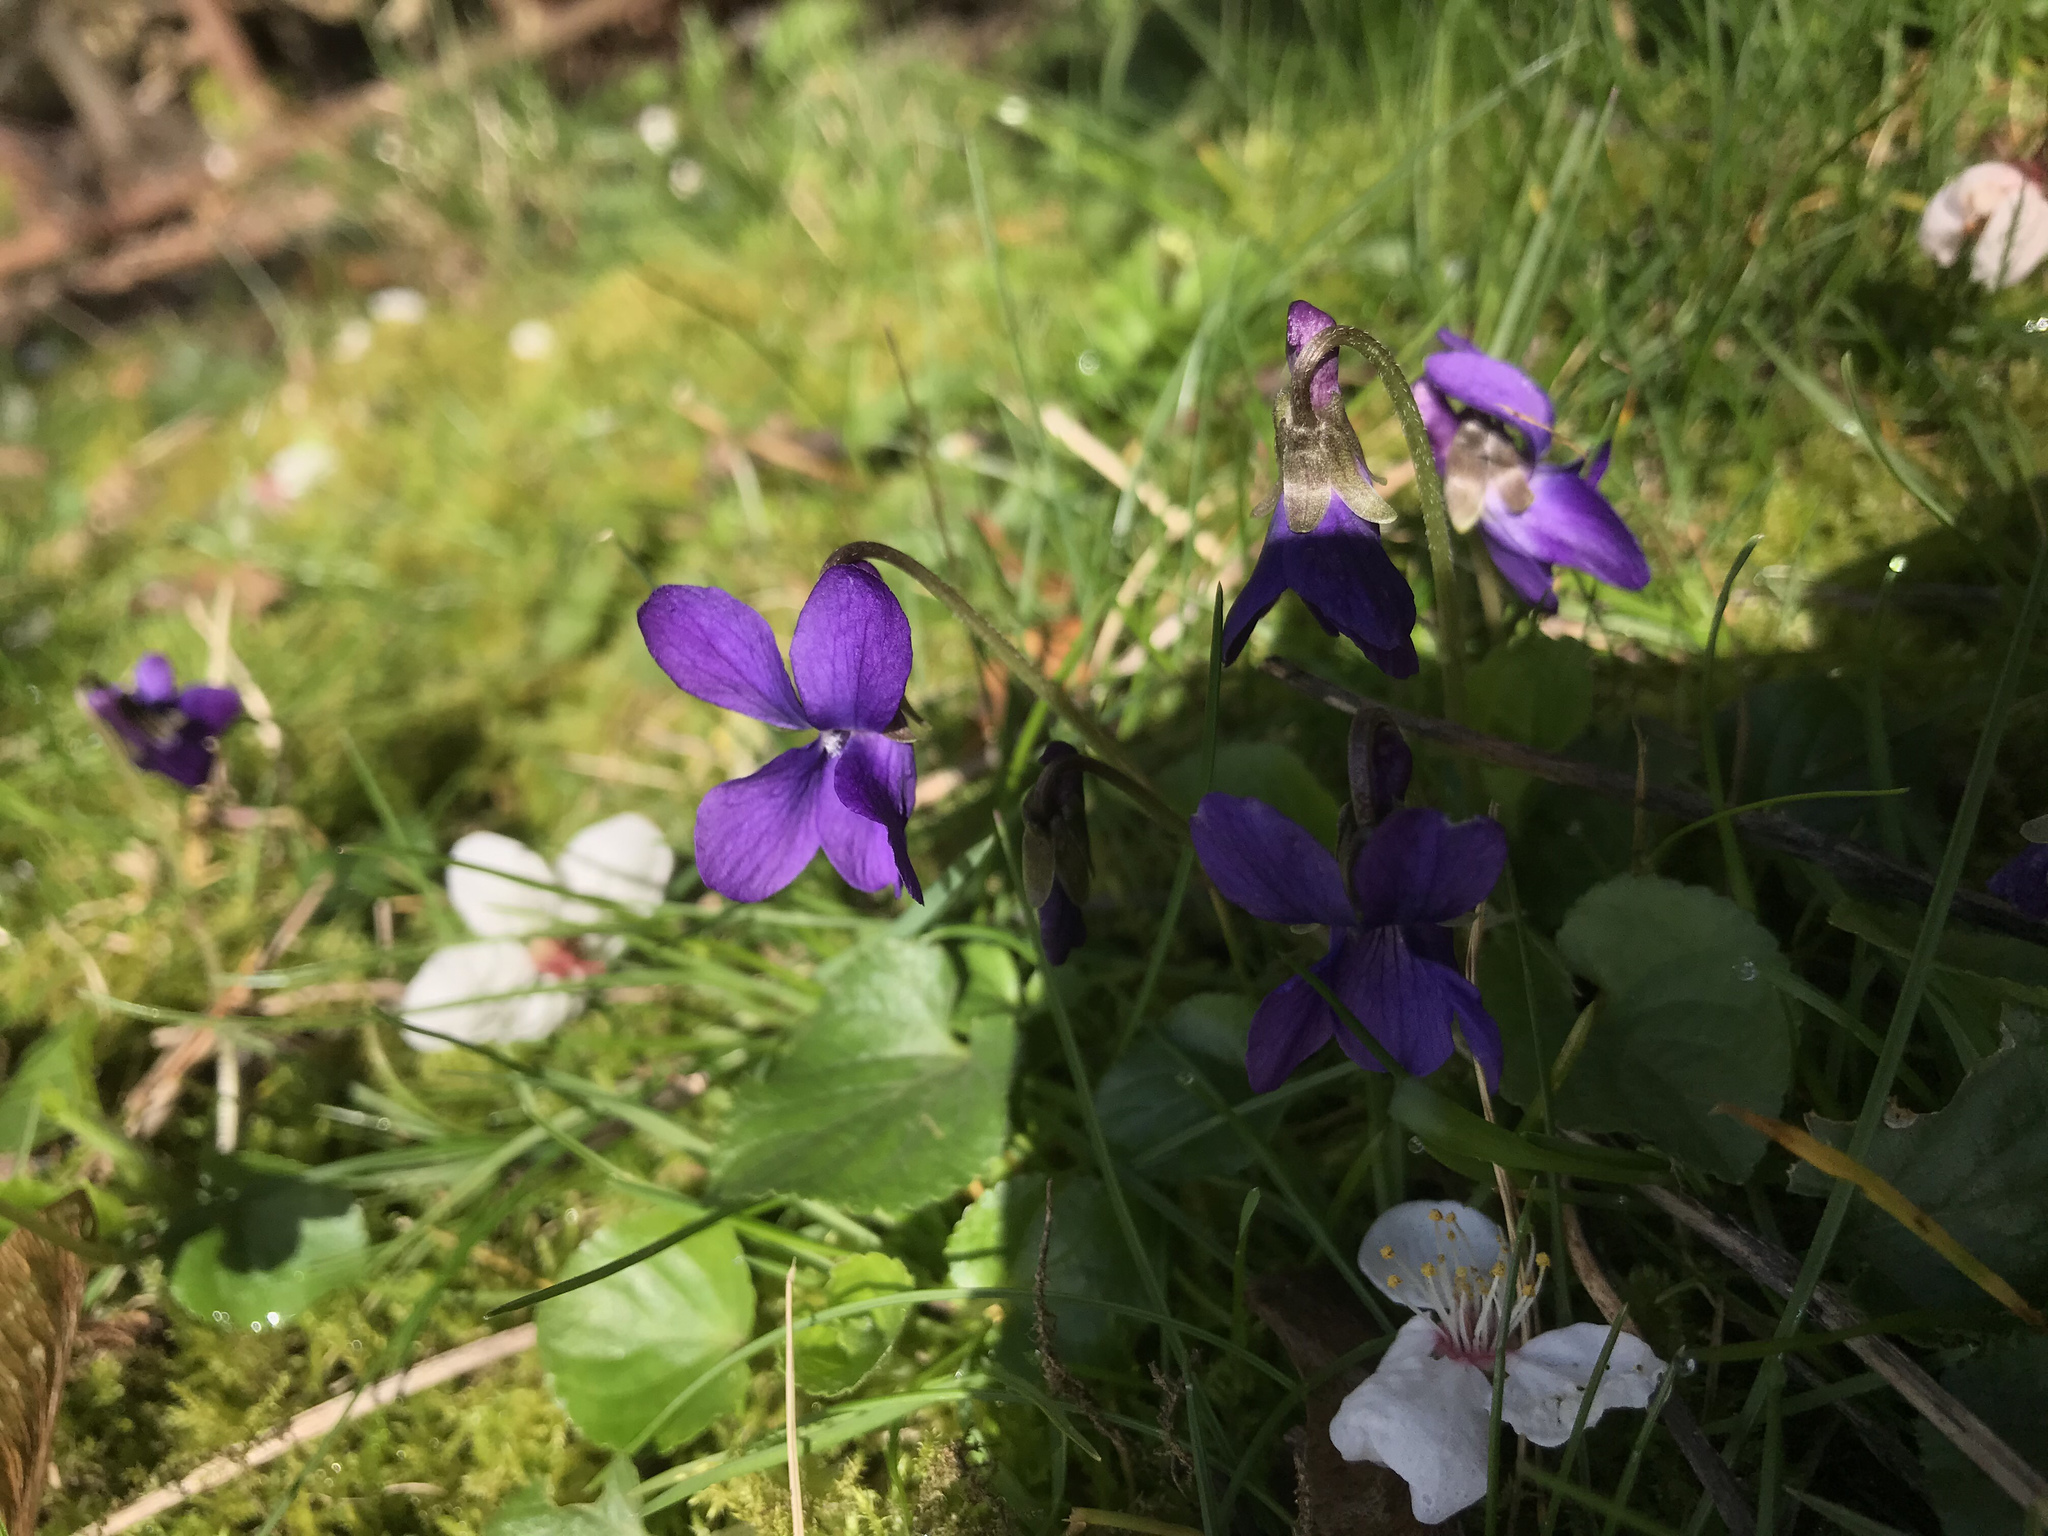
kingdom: Plantae
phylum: Tracheophyta
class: Magnoliopsida
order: Malpighiales
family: Violaceae
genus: Viola
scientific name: Viola odorata
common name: Sweet violet
